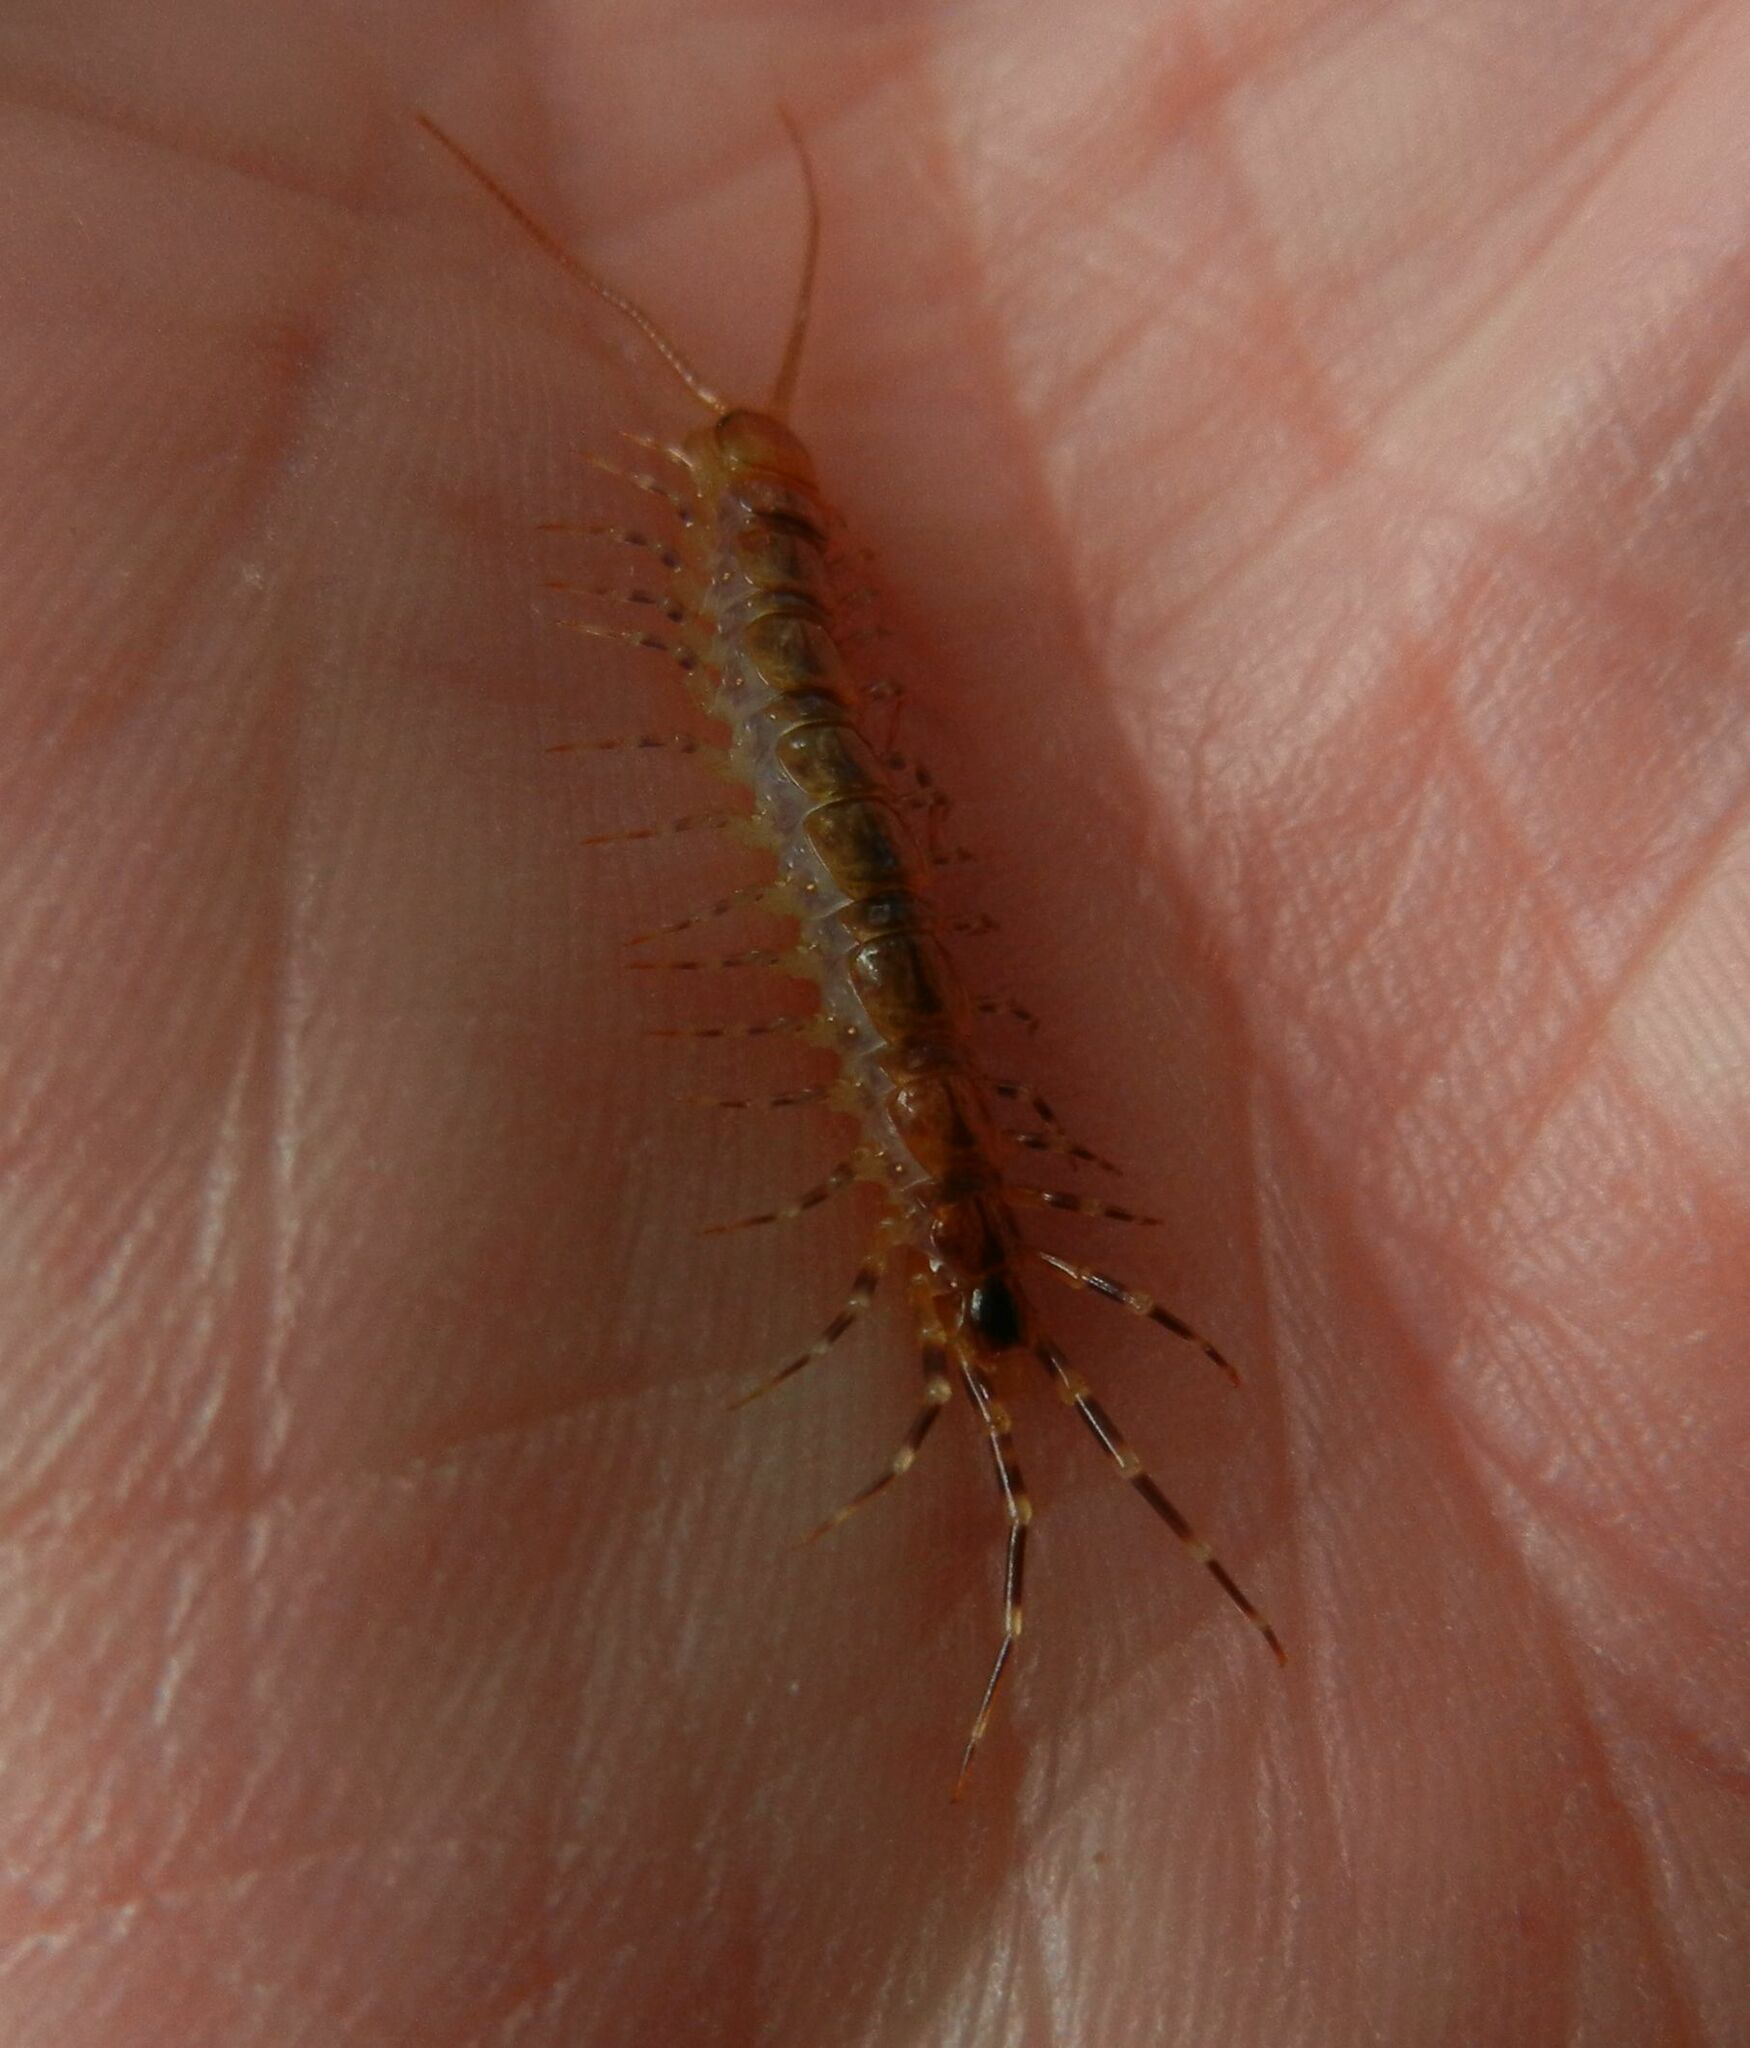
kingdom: Animalia
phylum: Arthropoda
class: Chilopoda
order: Lithobiomorpha
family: Lithobiidae
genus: Lithobius
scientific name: Lithobius variegatus
